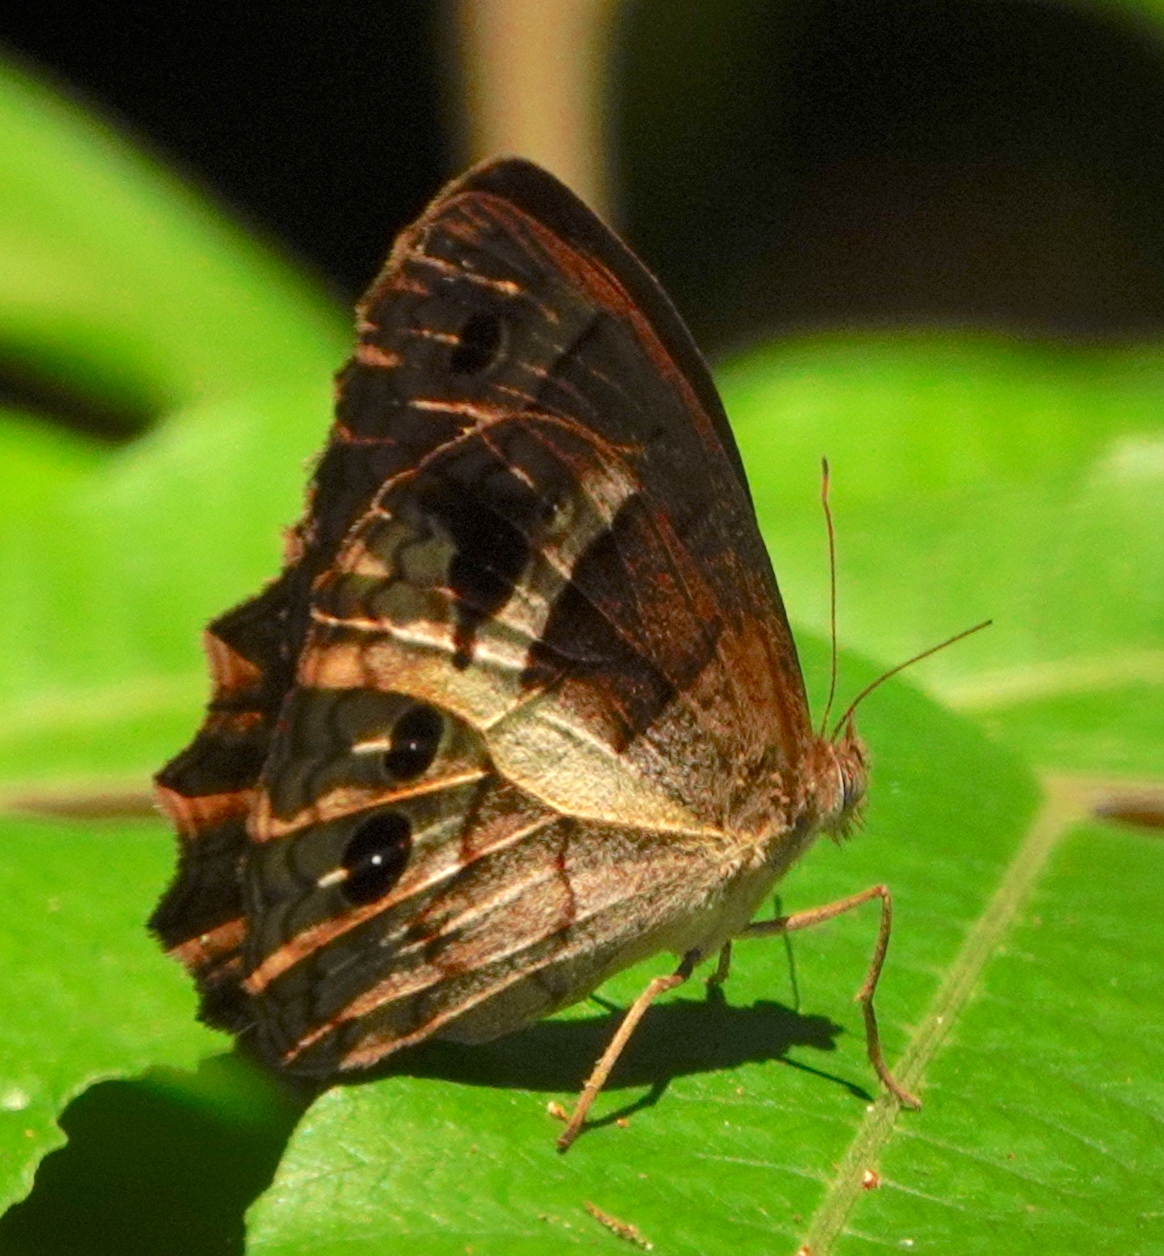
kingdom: Animalia
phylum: Arthropoda
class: Insecta
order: Lepidoptera
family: Nymphalidae
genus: Posttaygetis
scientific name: Posttaygetis penelea
